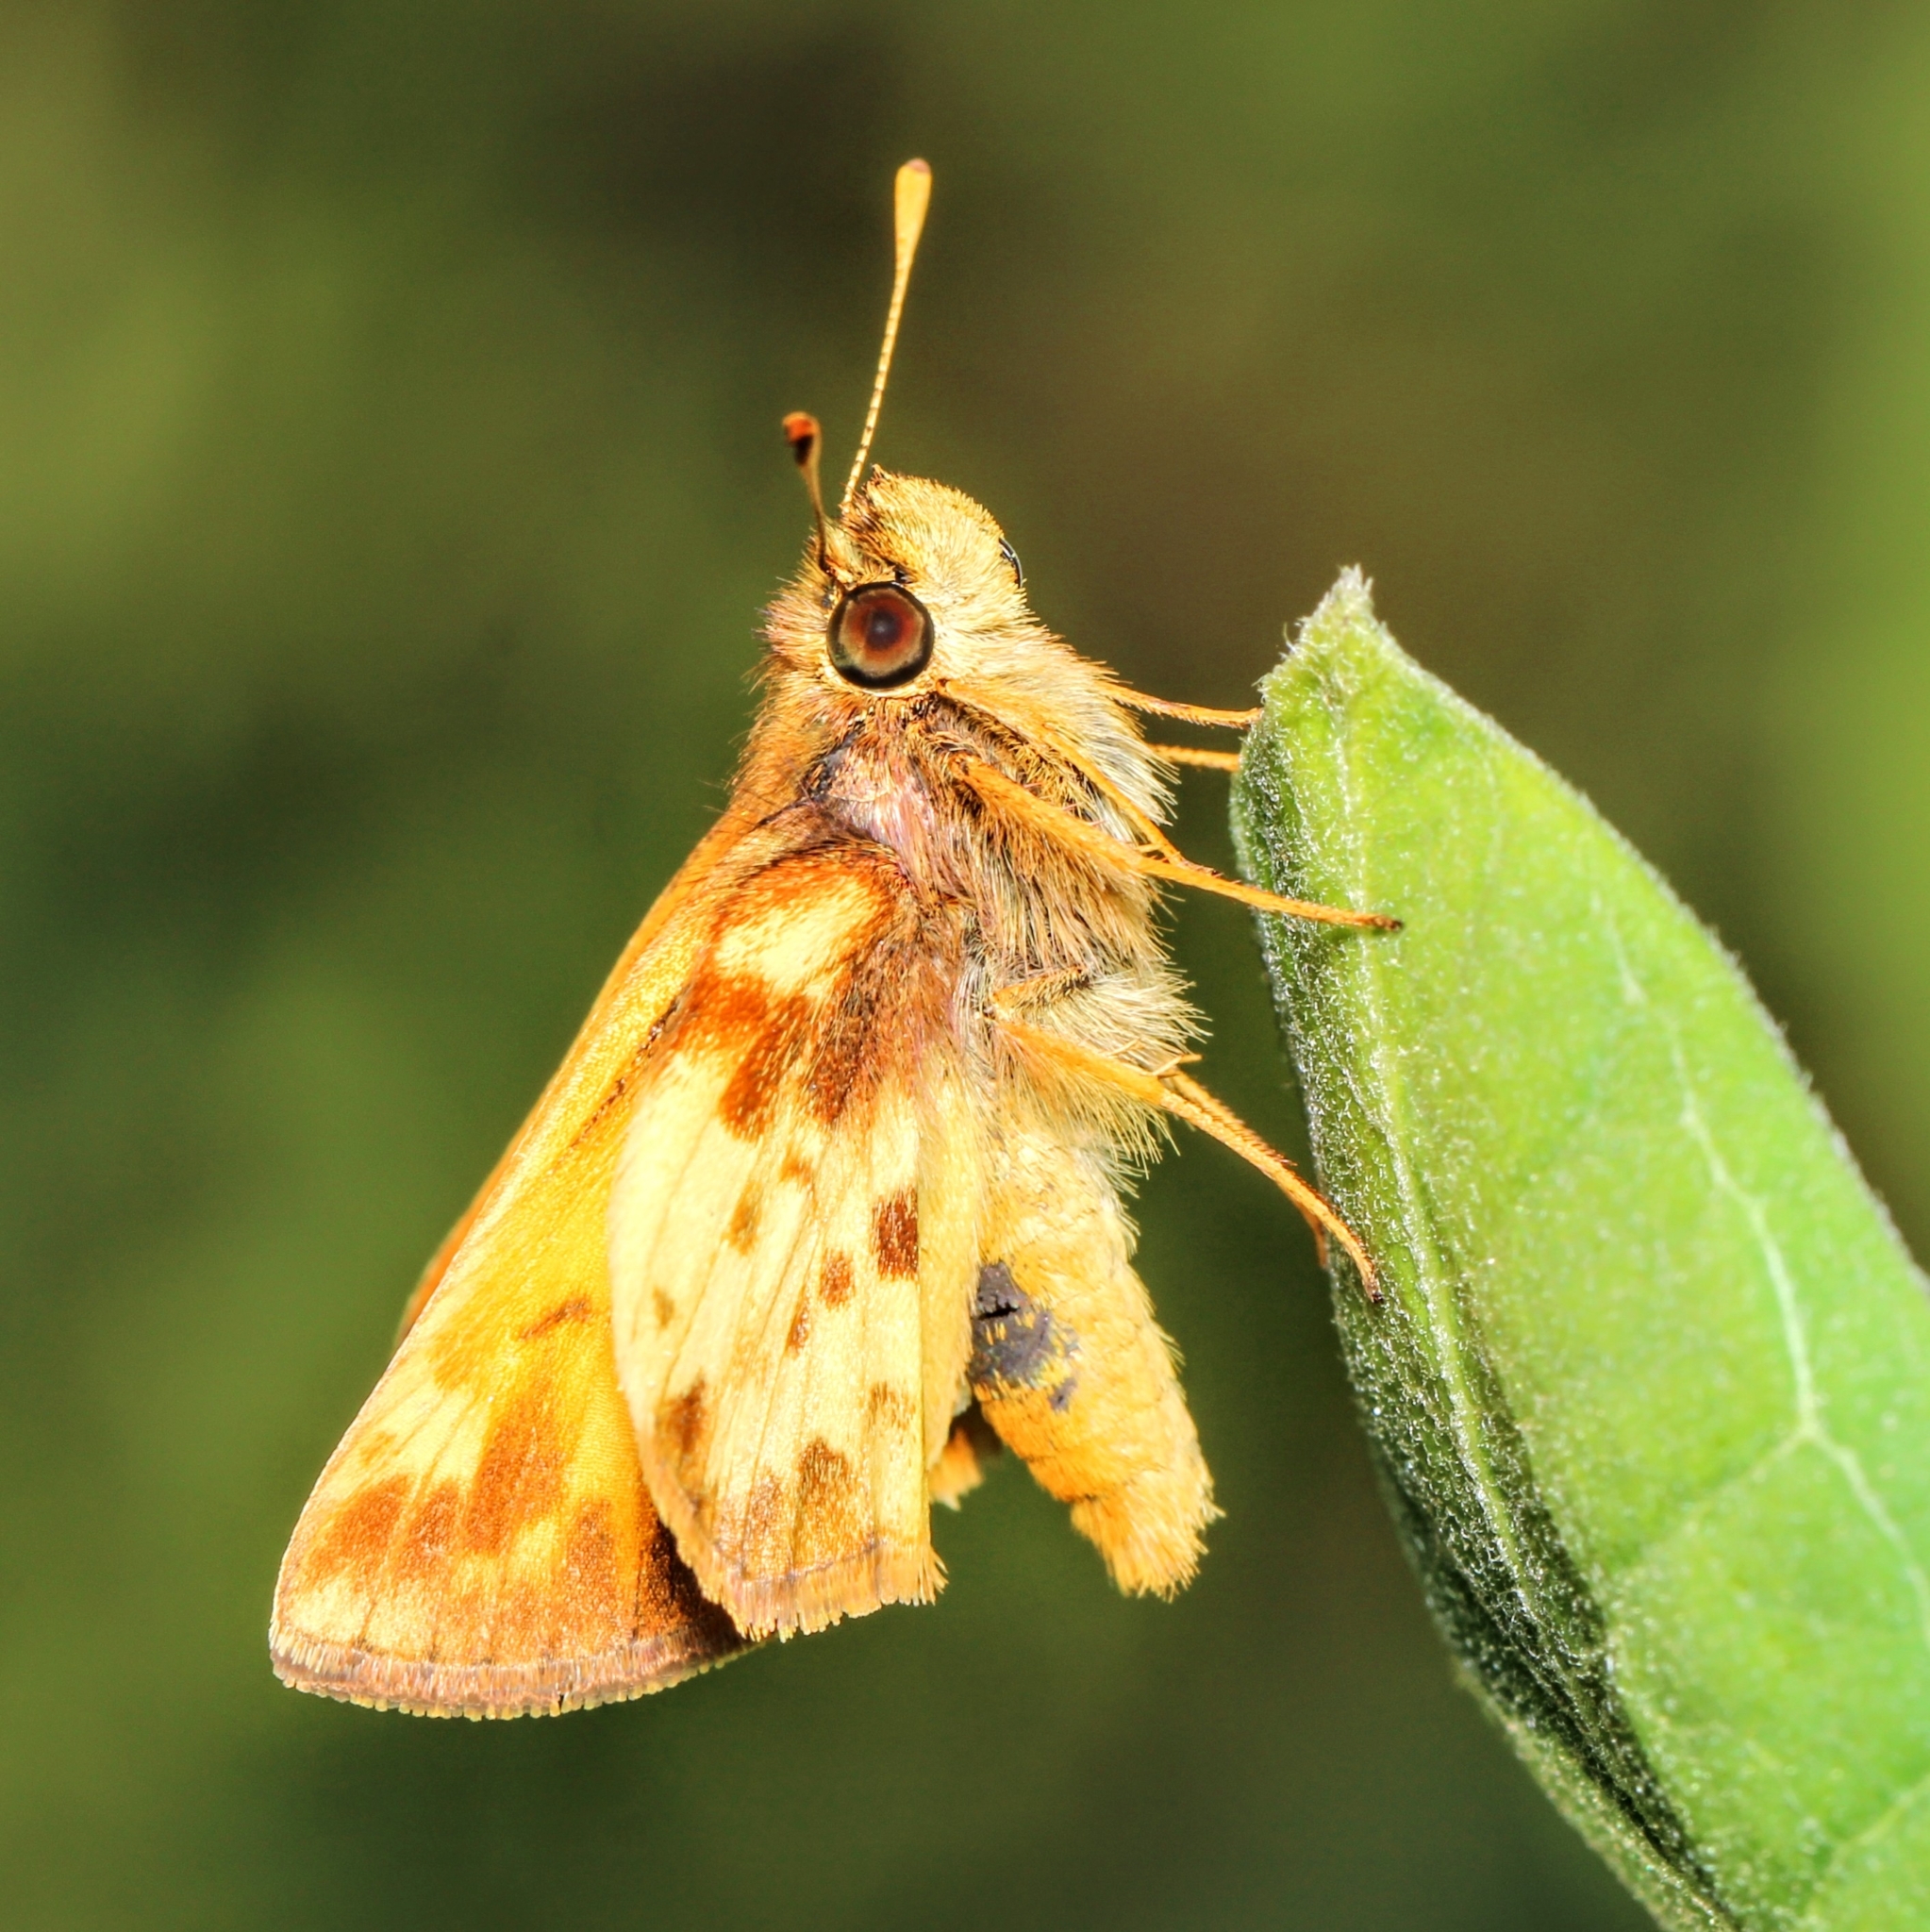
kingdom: Animalia
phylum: Arthropoda
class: Insecta
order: Lepidoptera
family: Hesperiidae
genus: Lon
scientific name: Lon zabulon
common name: Zabulon skipper
